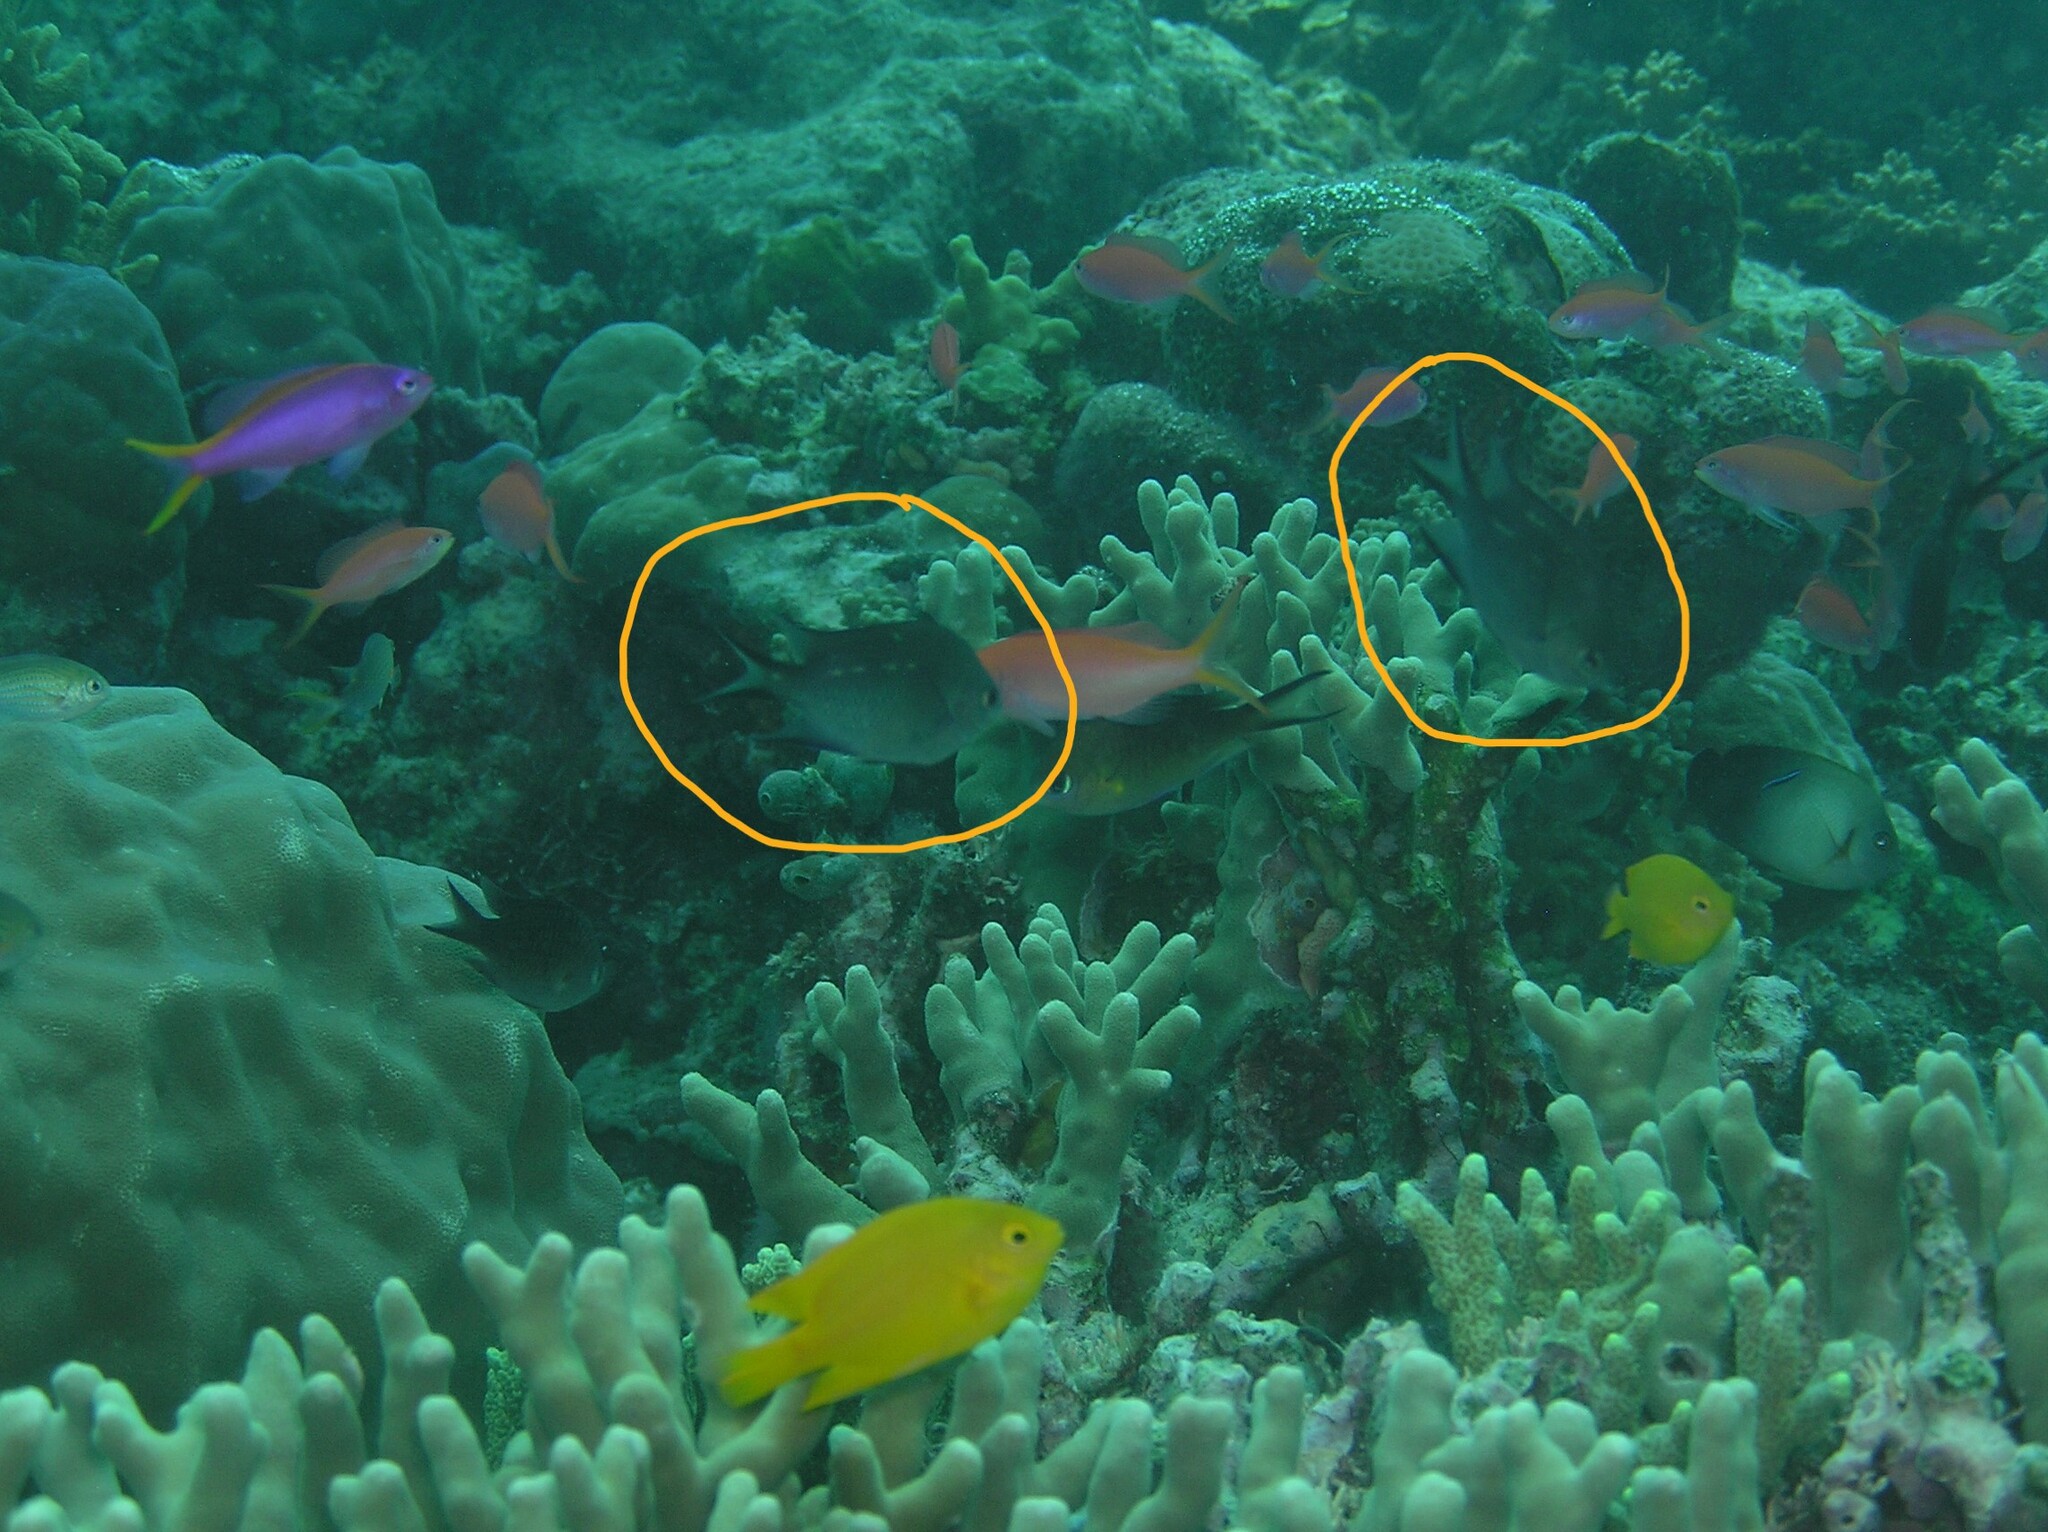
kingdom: Animalia
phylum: Chordata
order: Perciformes
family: Pomacentridae
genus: Acanthochromis
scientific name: Acanthochromis polyacanthus
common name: Spiny chromis
